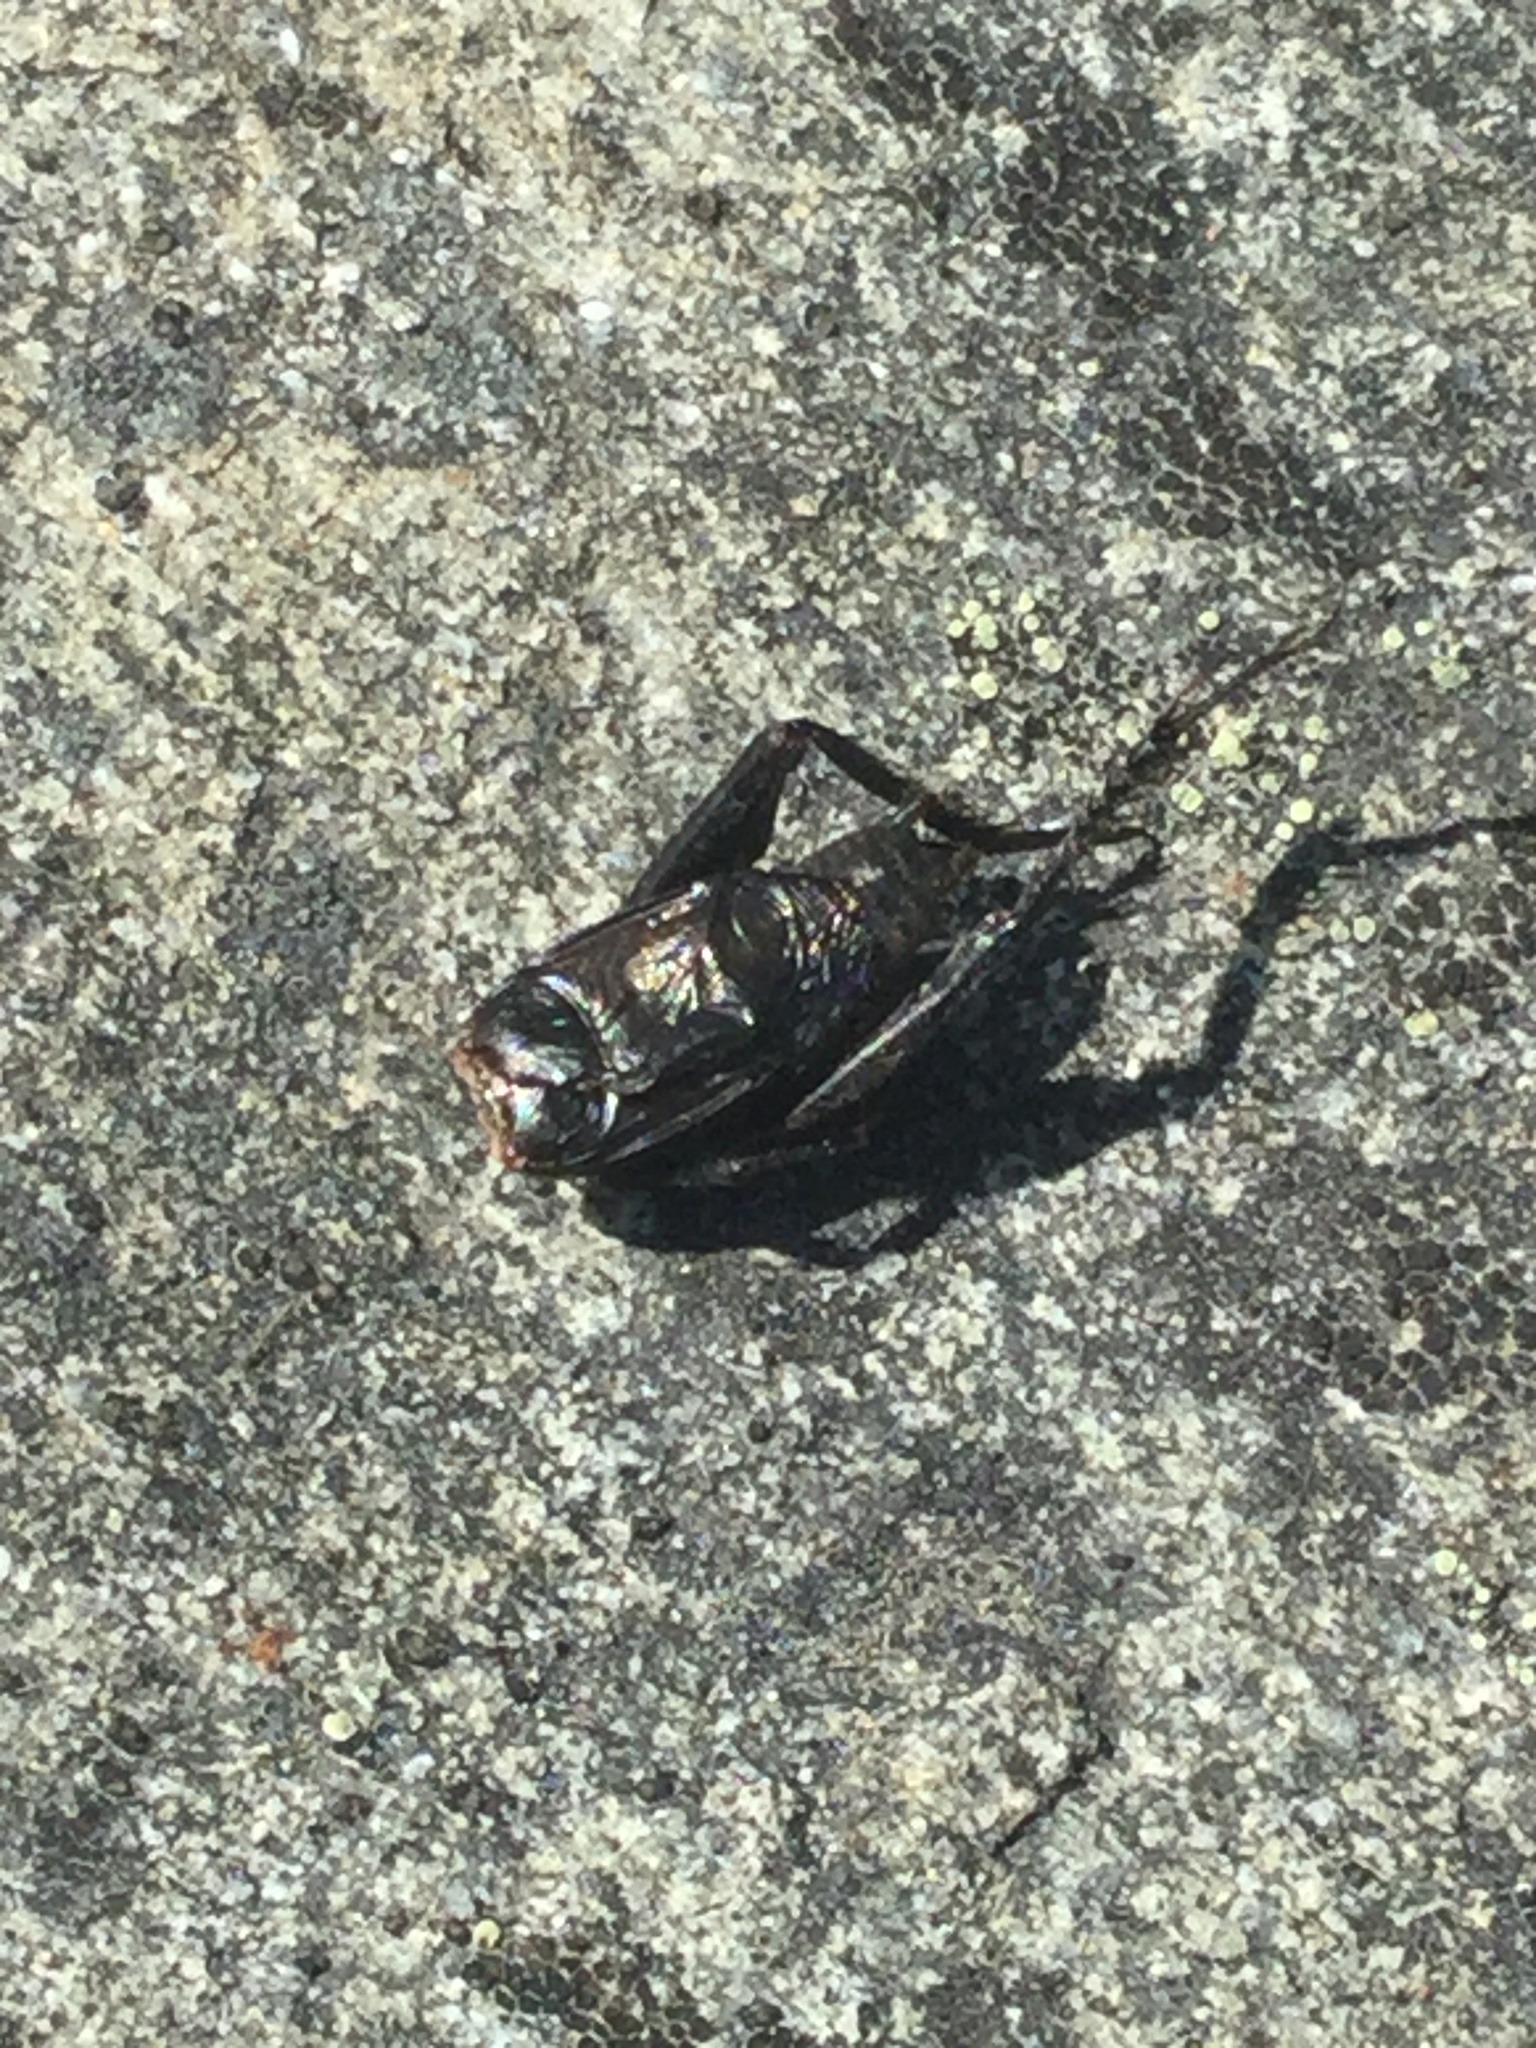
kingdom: Animalia
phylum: Arthropoda
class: Insecta
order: Orthoptera
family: Gryllidae
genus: Gryllus
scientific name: Gryllus pennsylvanicus
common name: Fall field cricket
